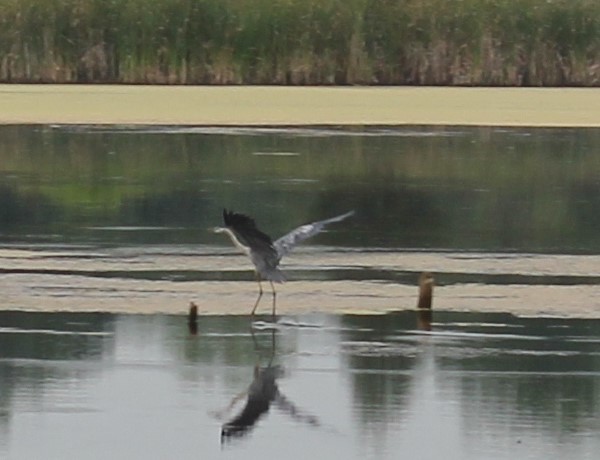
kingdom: Animalia
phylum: Chordata
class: Aves
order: Pelecaniformes
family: Ardeidae
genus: Ardea
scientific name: Ardea herodias
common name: Great blue heron
